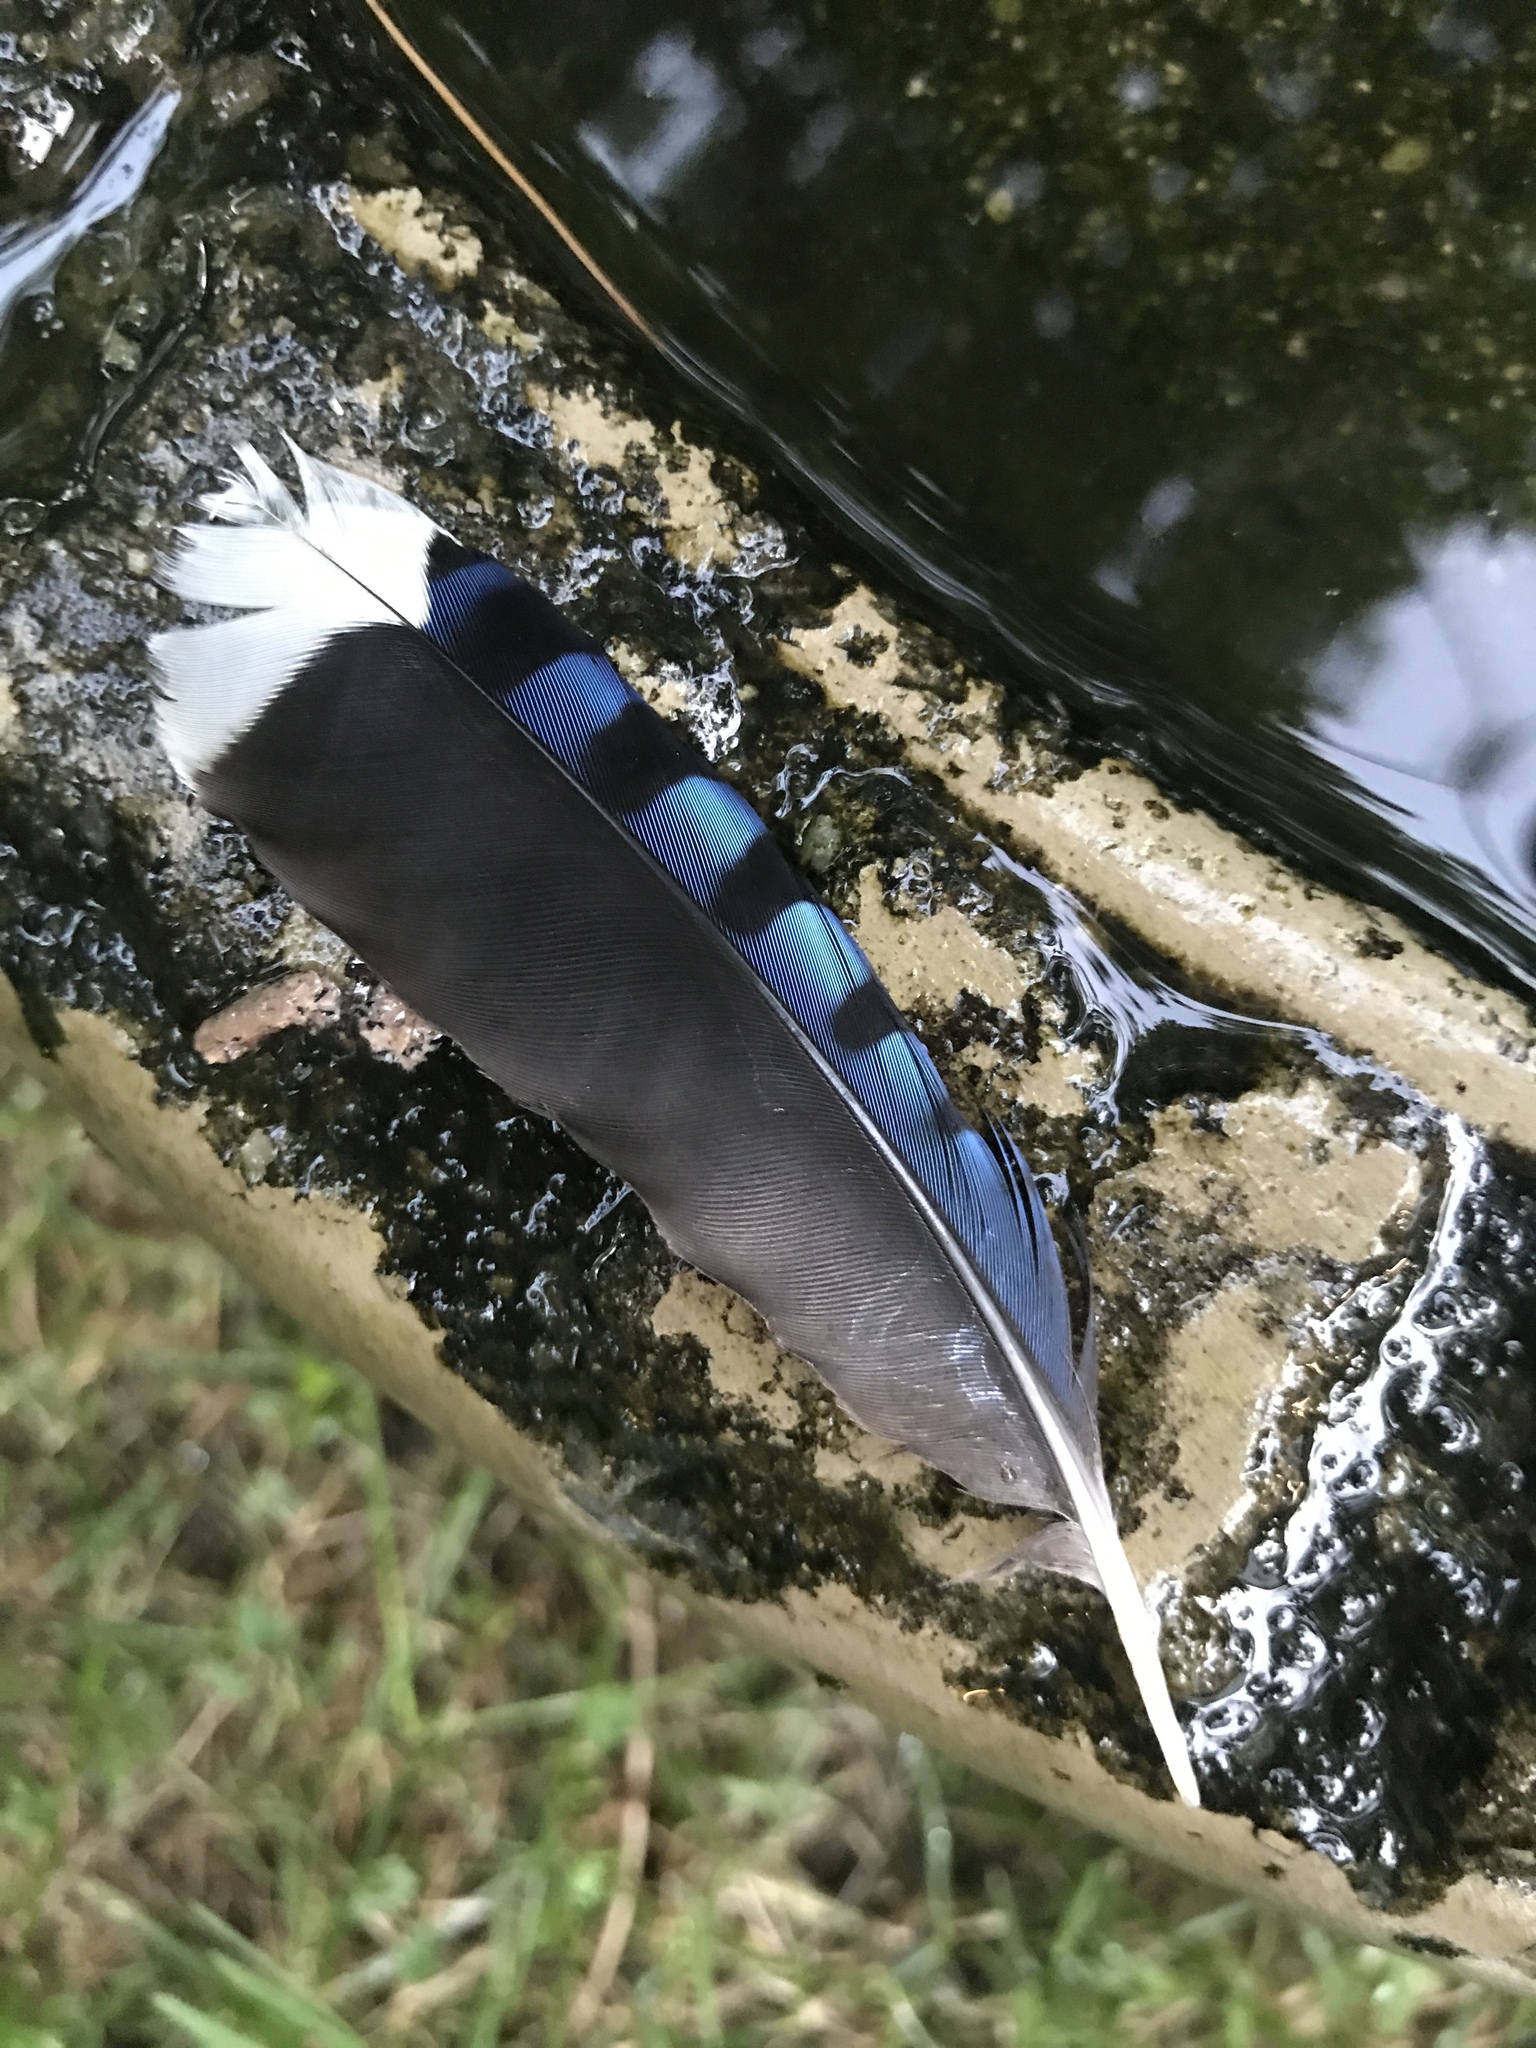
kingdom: Animalia
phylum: Chordata
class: Aves
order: Passeriformes
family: Corvidae
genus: Cyanocitta
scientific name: Cyanocitta cristata
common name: Blue jay
